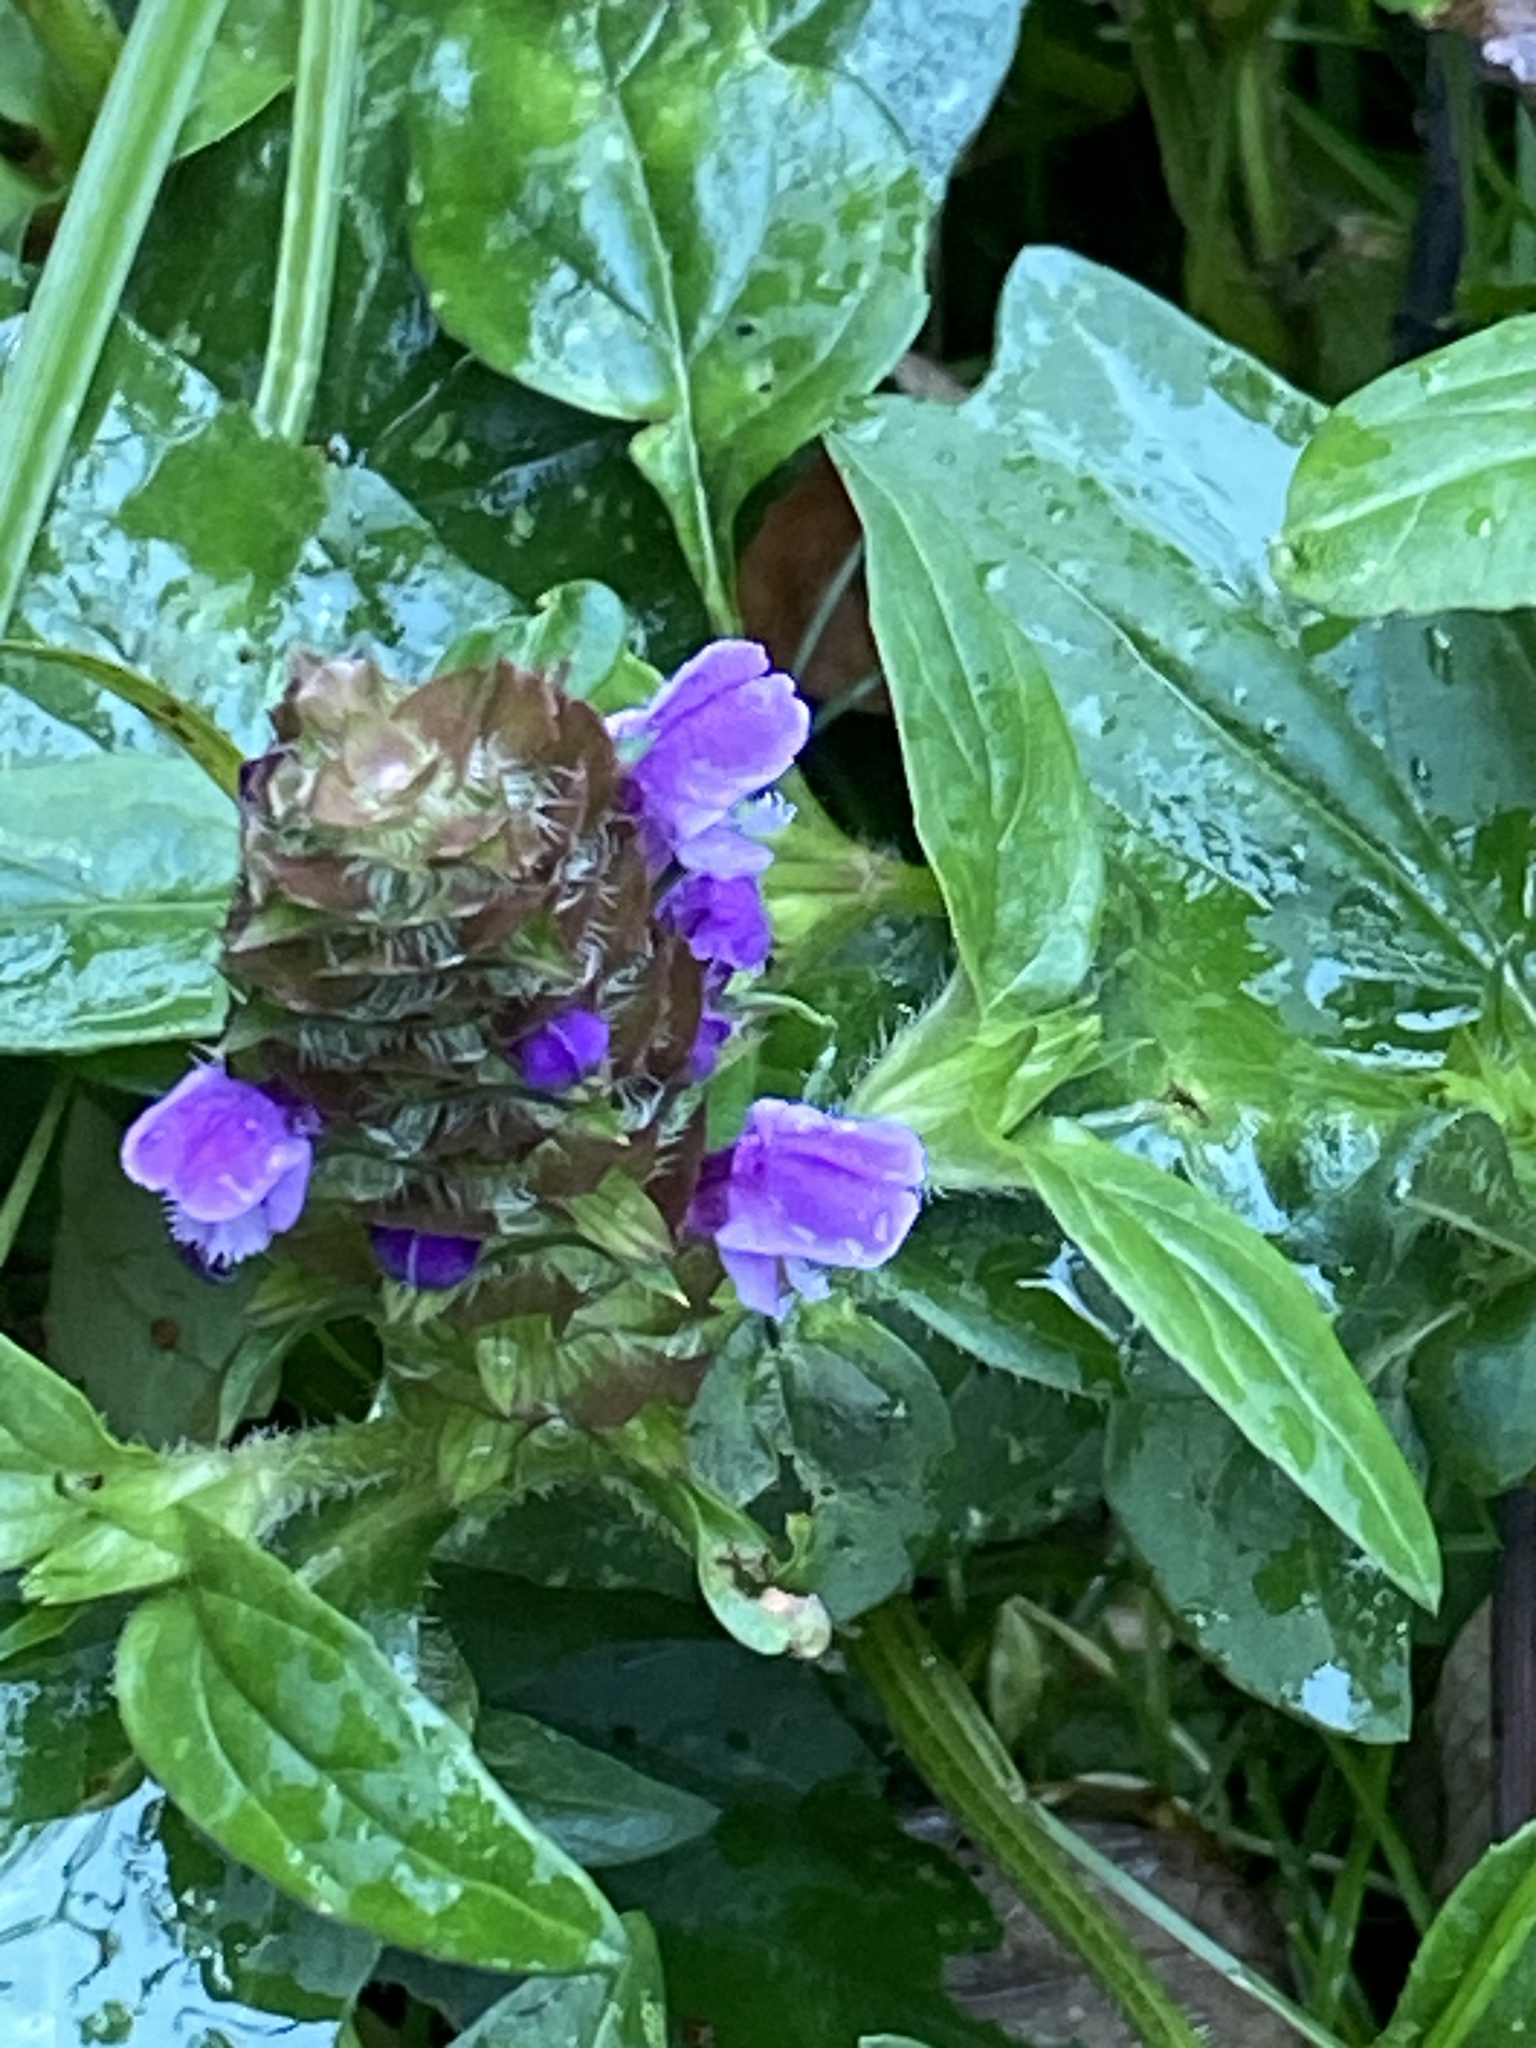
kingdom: Plantae
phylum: Tracheophyta
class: Magnoliopsida
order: Lamiales
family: Lamiaceae
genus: Prunella
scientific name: Prunella vulgaris
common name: Heal-all
